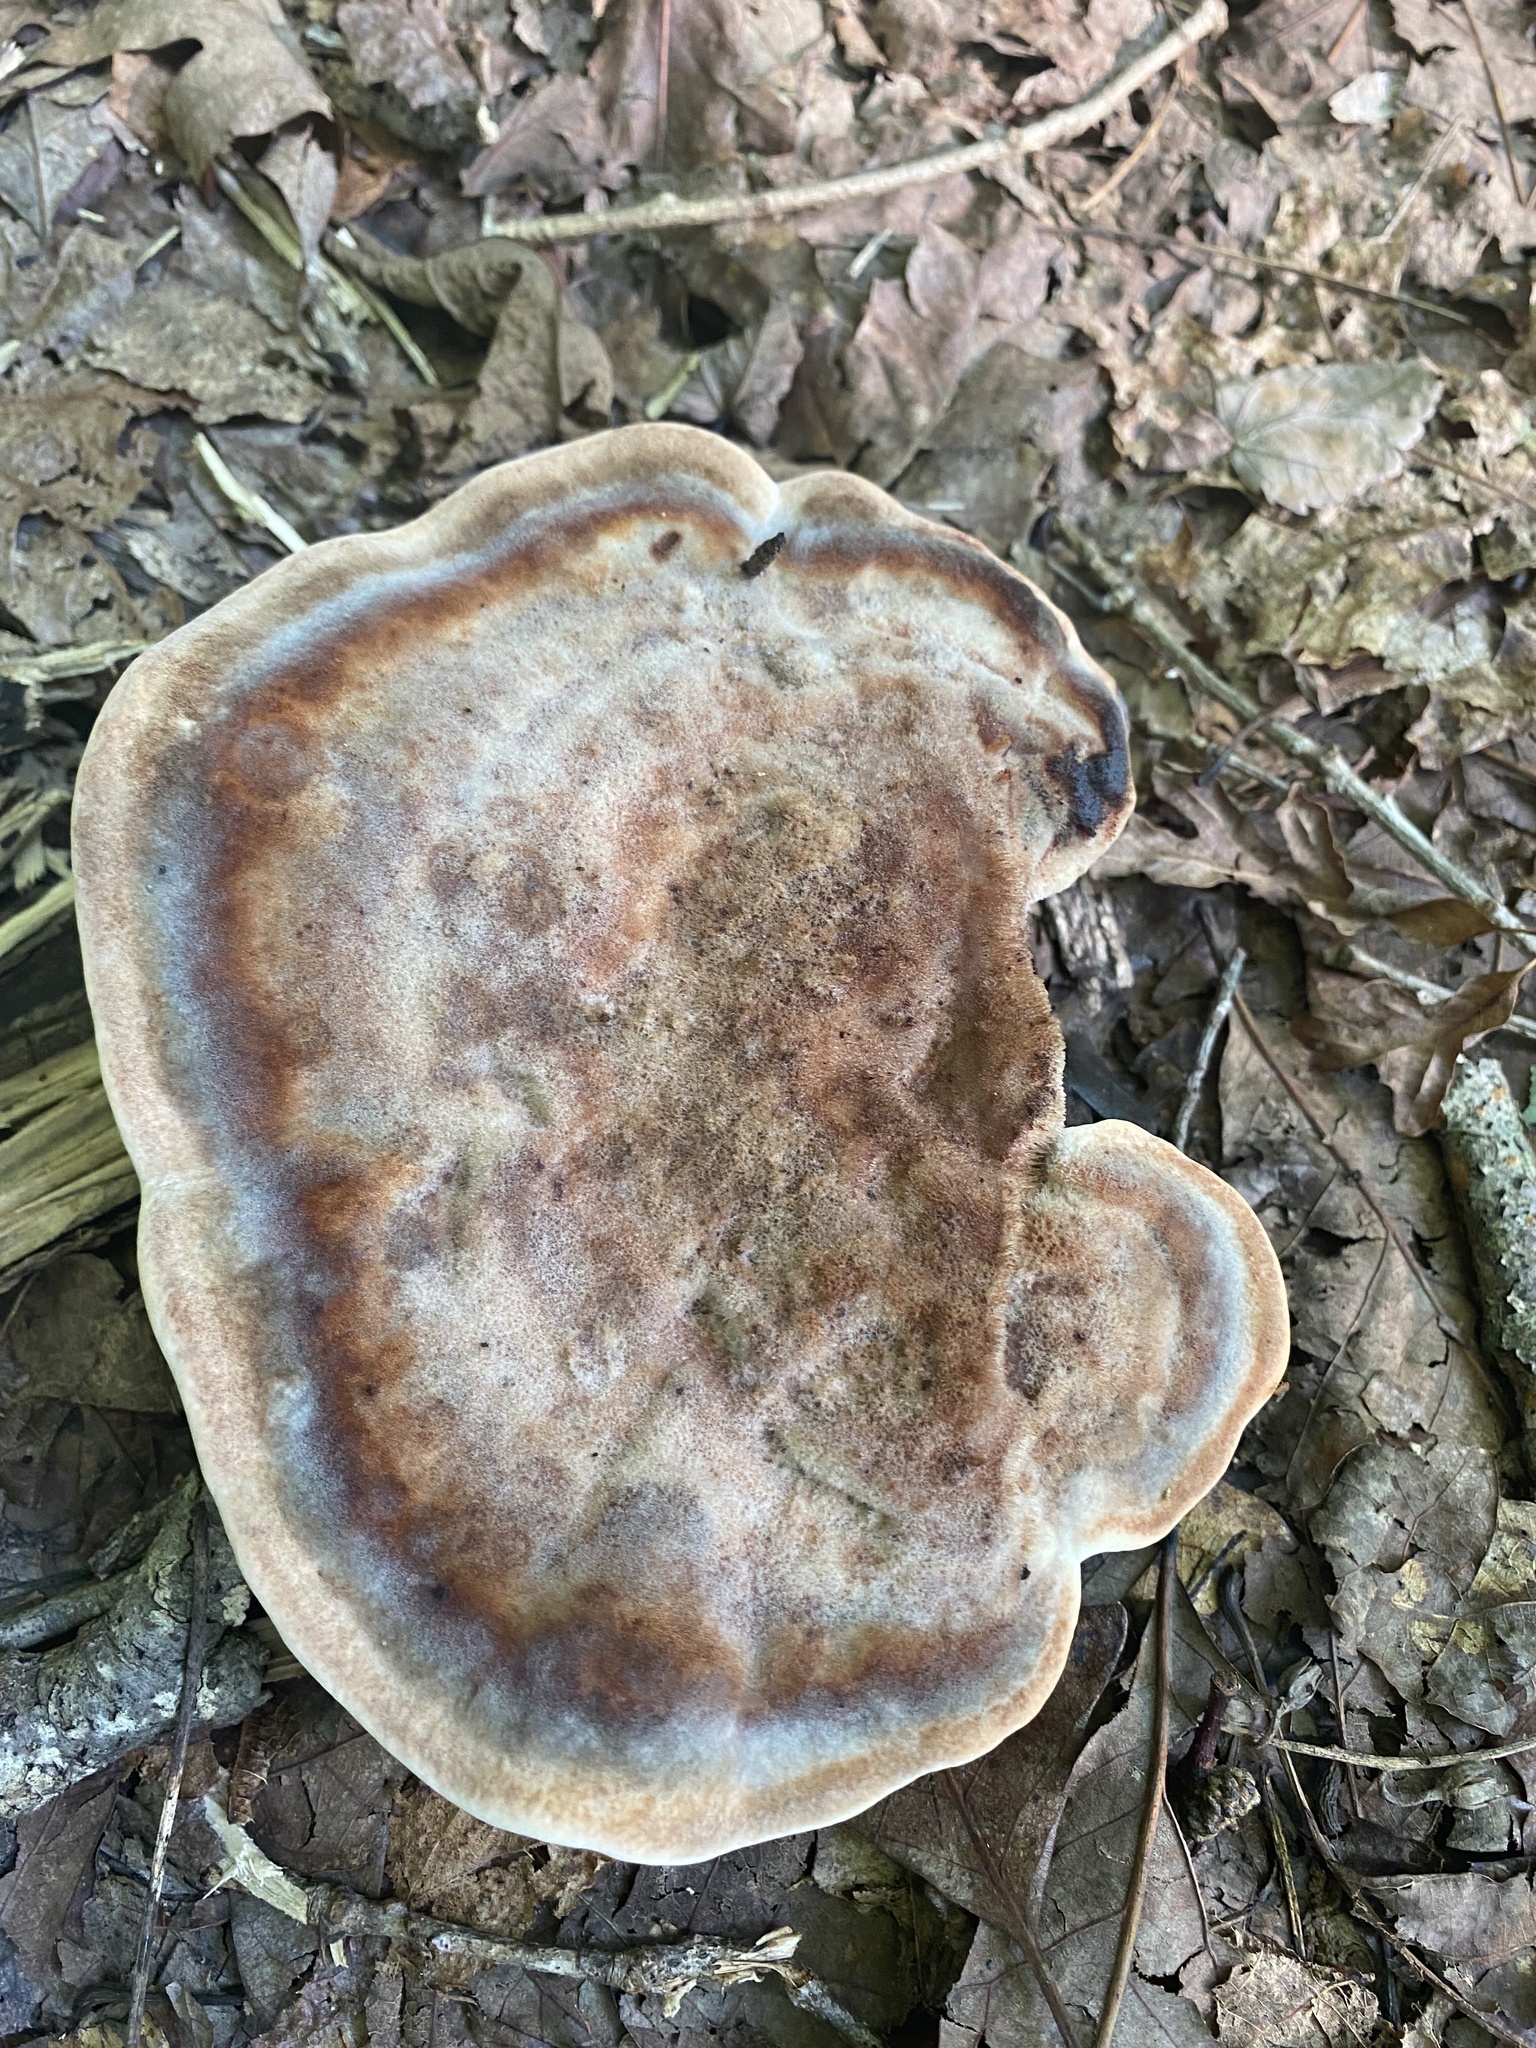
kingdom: Fungi
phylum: Basidiomycota
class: Agaricomycetes
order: Polyporales
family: Laetiporaceae
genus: Berkcurtia
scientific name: Berkcurtia persicina
